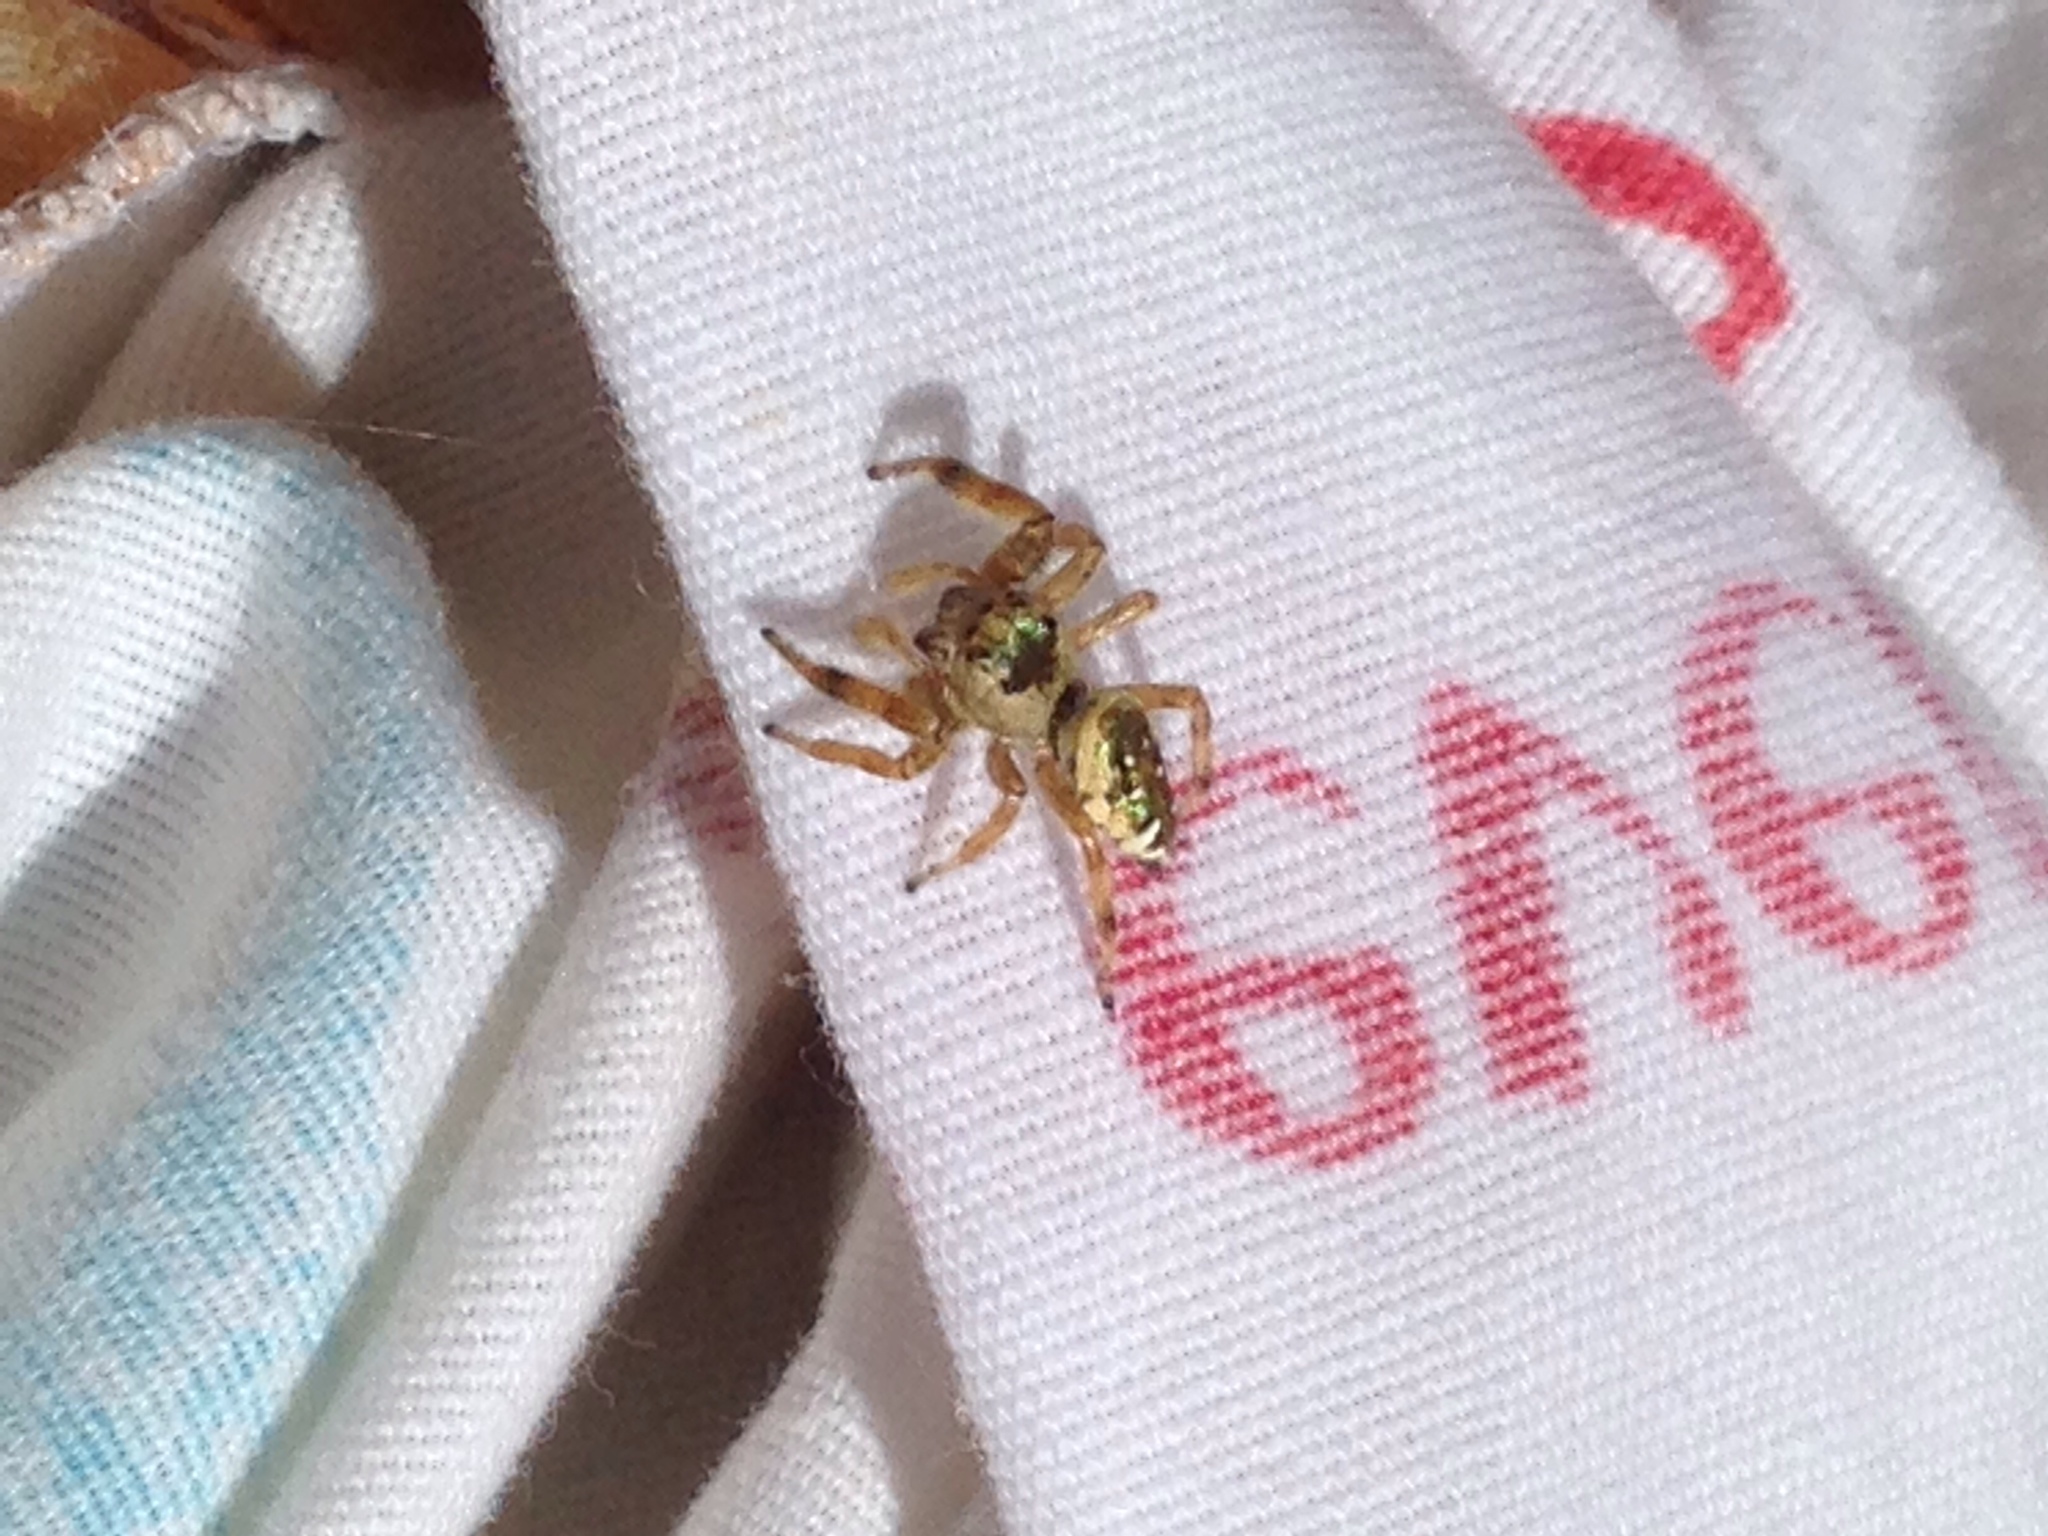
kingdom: Animalia
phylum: Arthropoda
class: Arachnida
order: Araneae
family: Salticidae
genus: Paraphidippus
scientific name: Paraphidippus aurantius
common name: Jumping spiders
